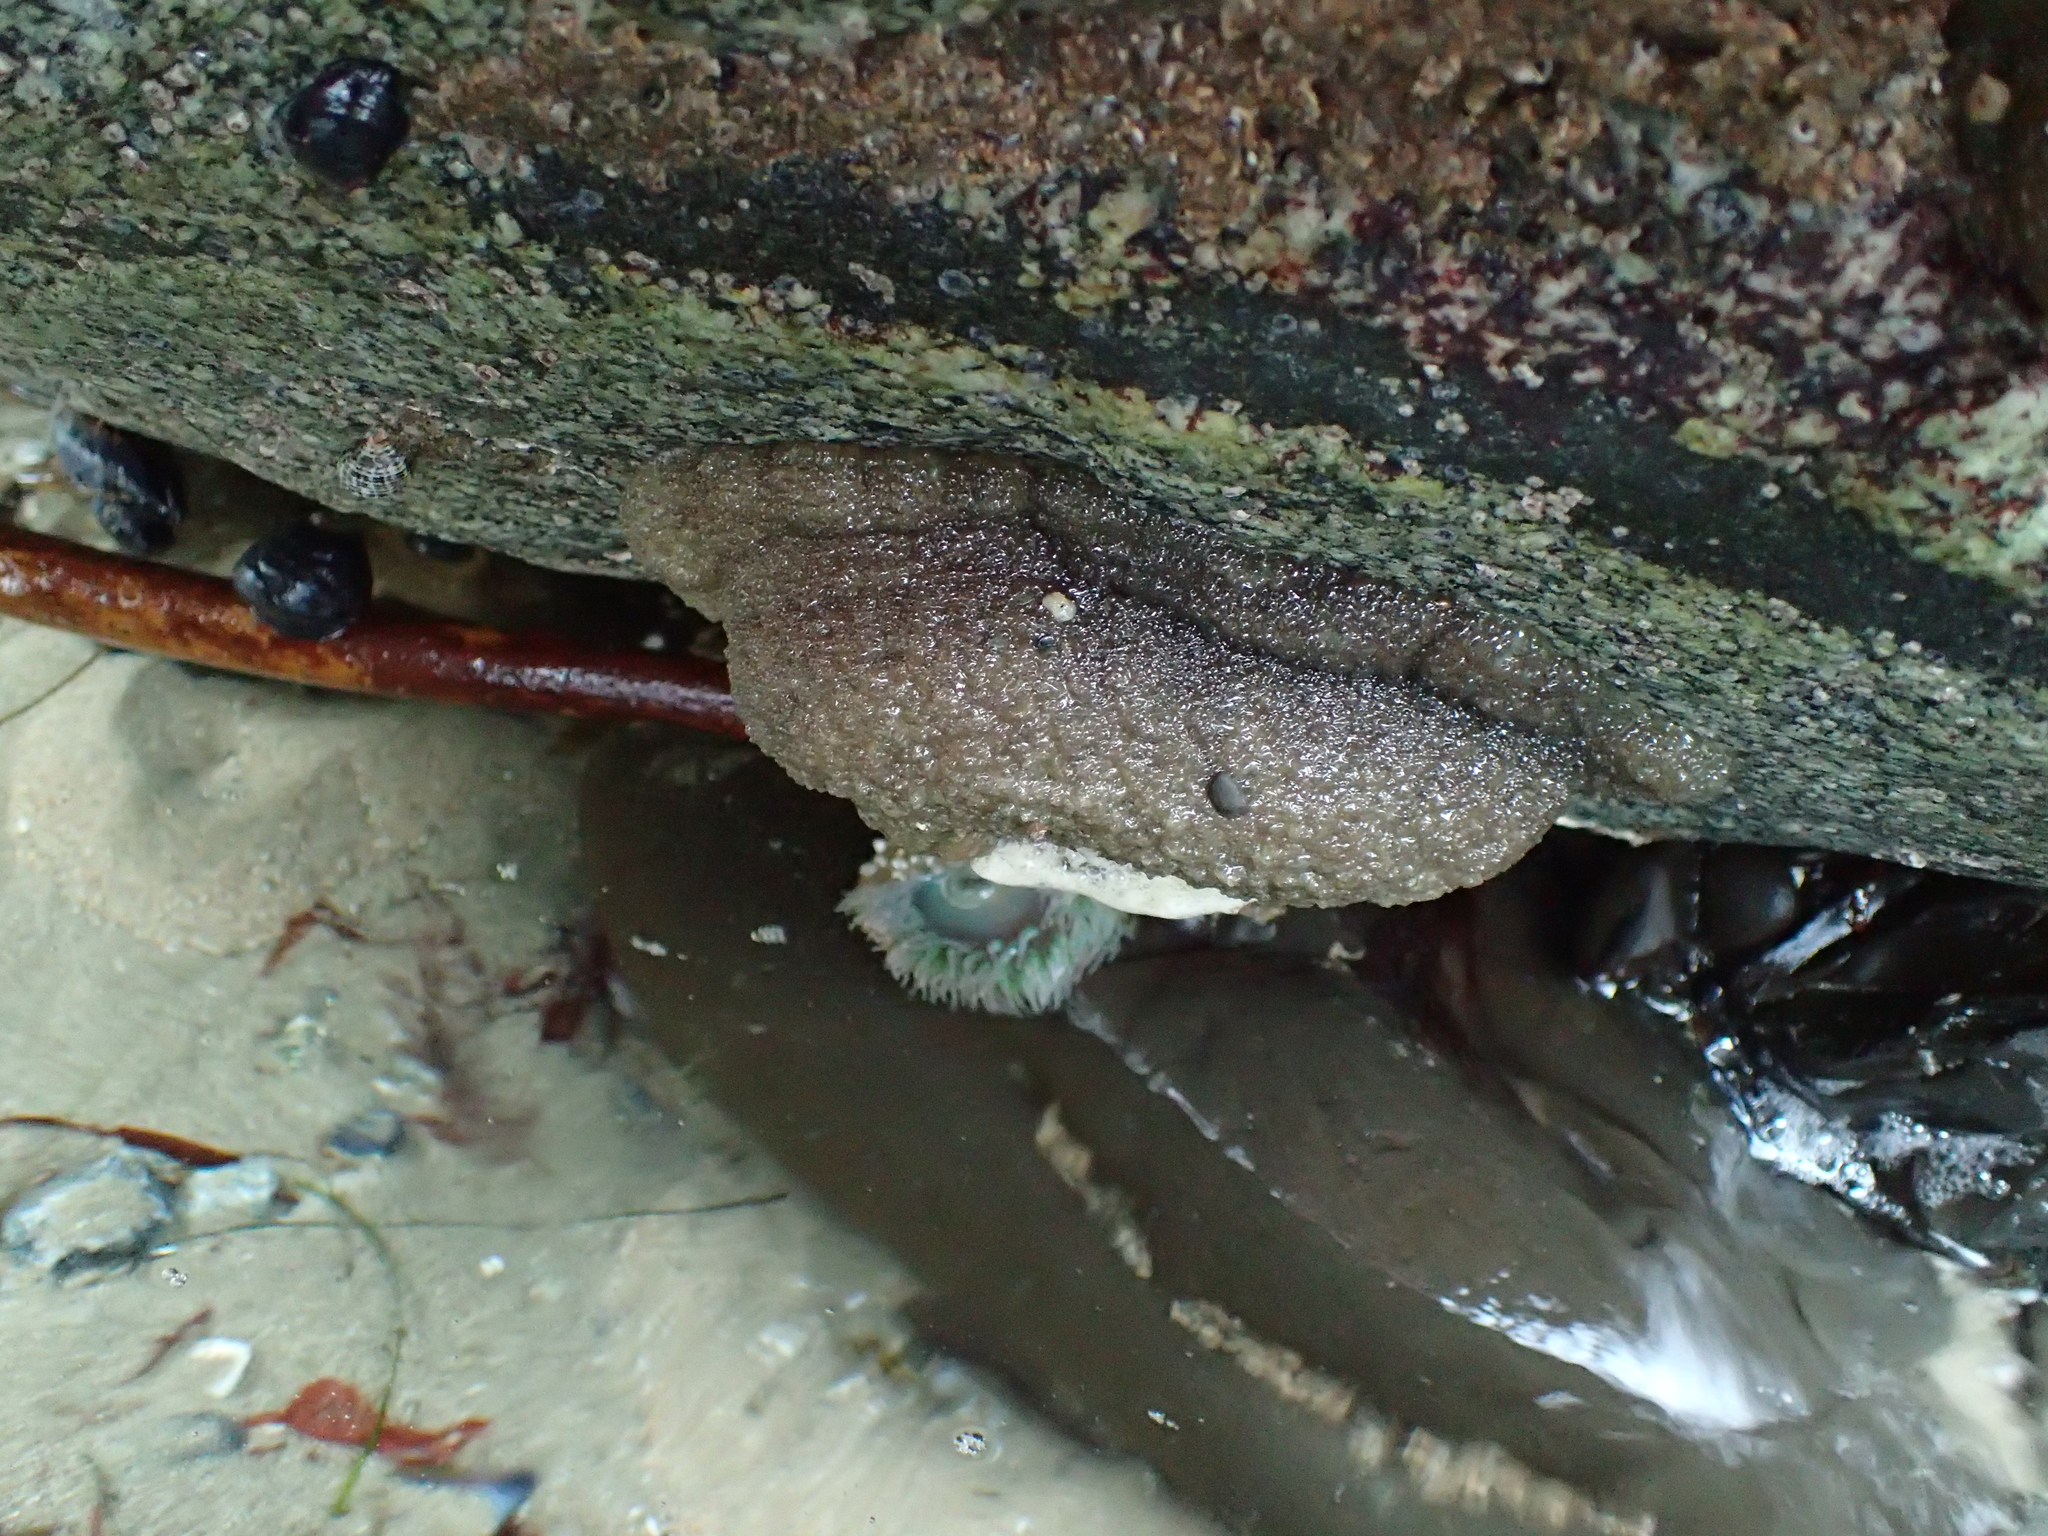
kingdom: Animalia
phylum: Cnidaria
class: Anthozoa
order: Actiniaria
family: Actiniidae
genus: Anthopleura
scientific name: Anthopleura xanthogrammica
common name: Giant green anemone
